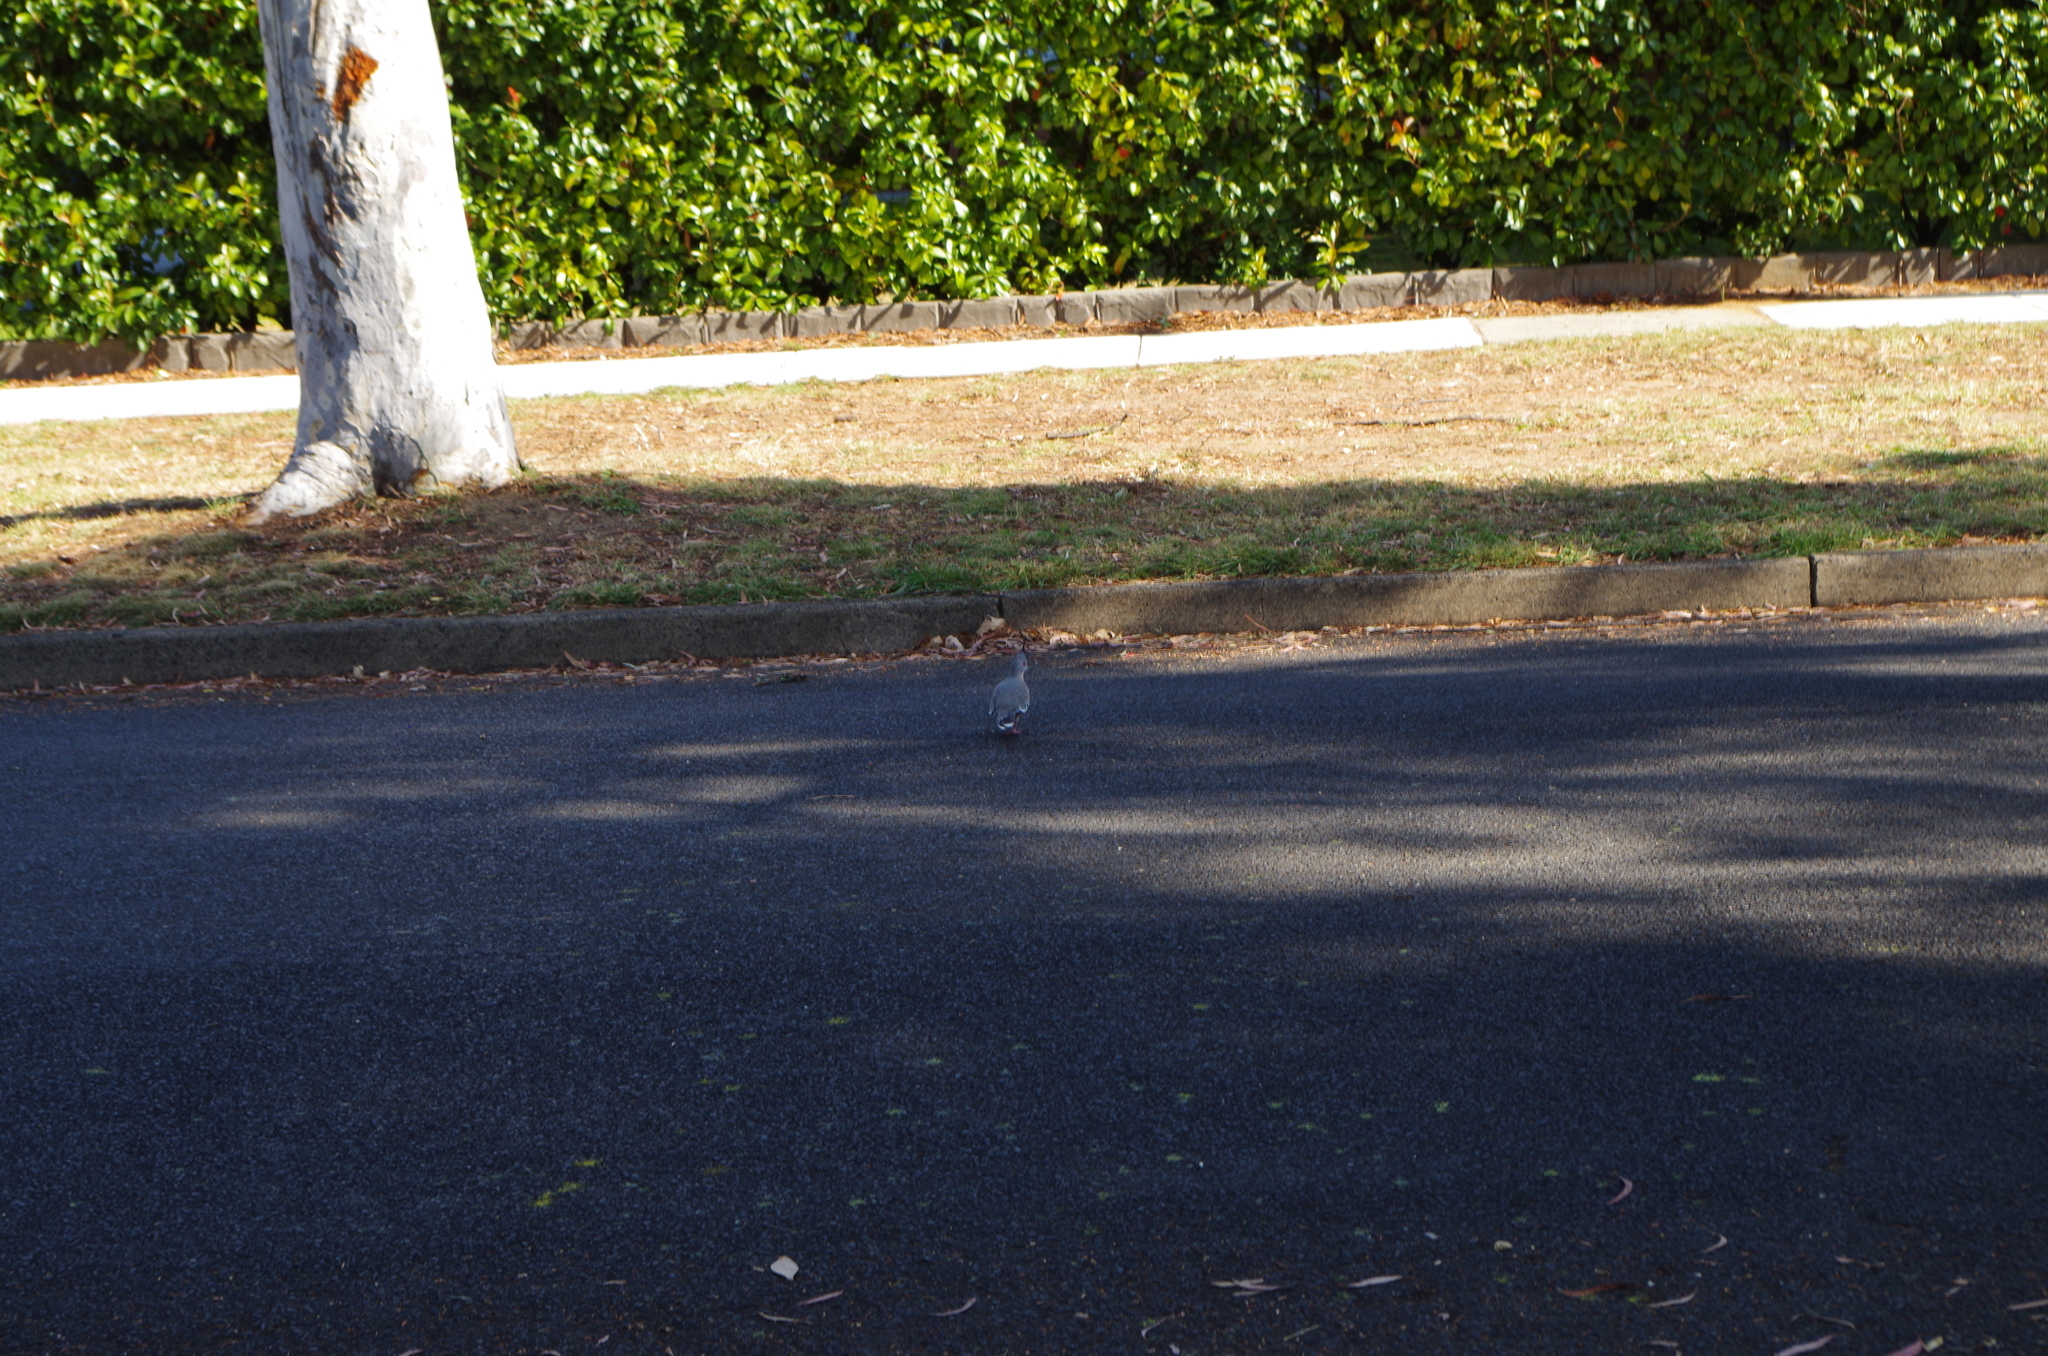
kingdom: Animalia
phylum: Chordata
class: Aves
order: Columbiformes
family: Columbidae
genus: Ocyphaps
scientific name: Ocyphaps lophotes
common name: Crested pigeon
